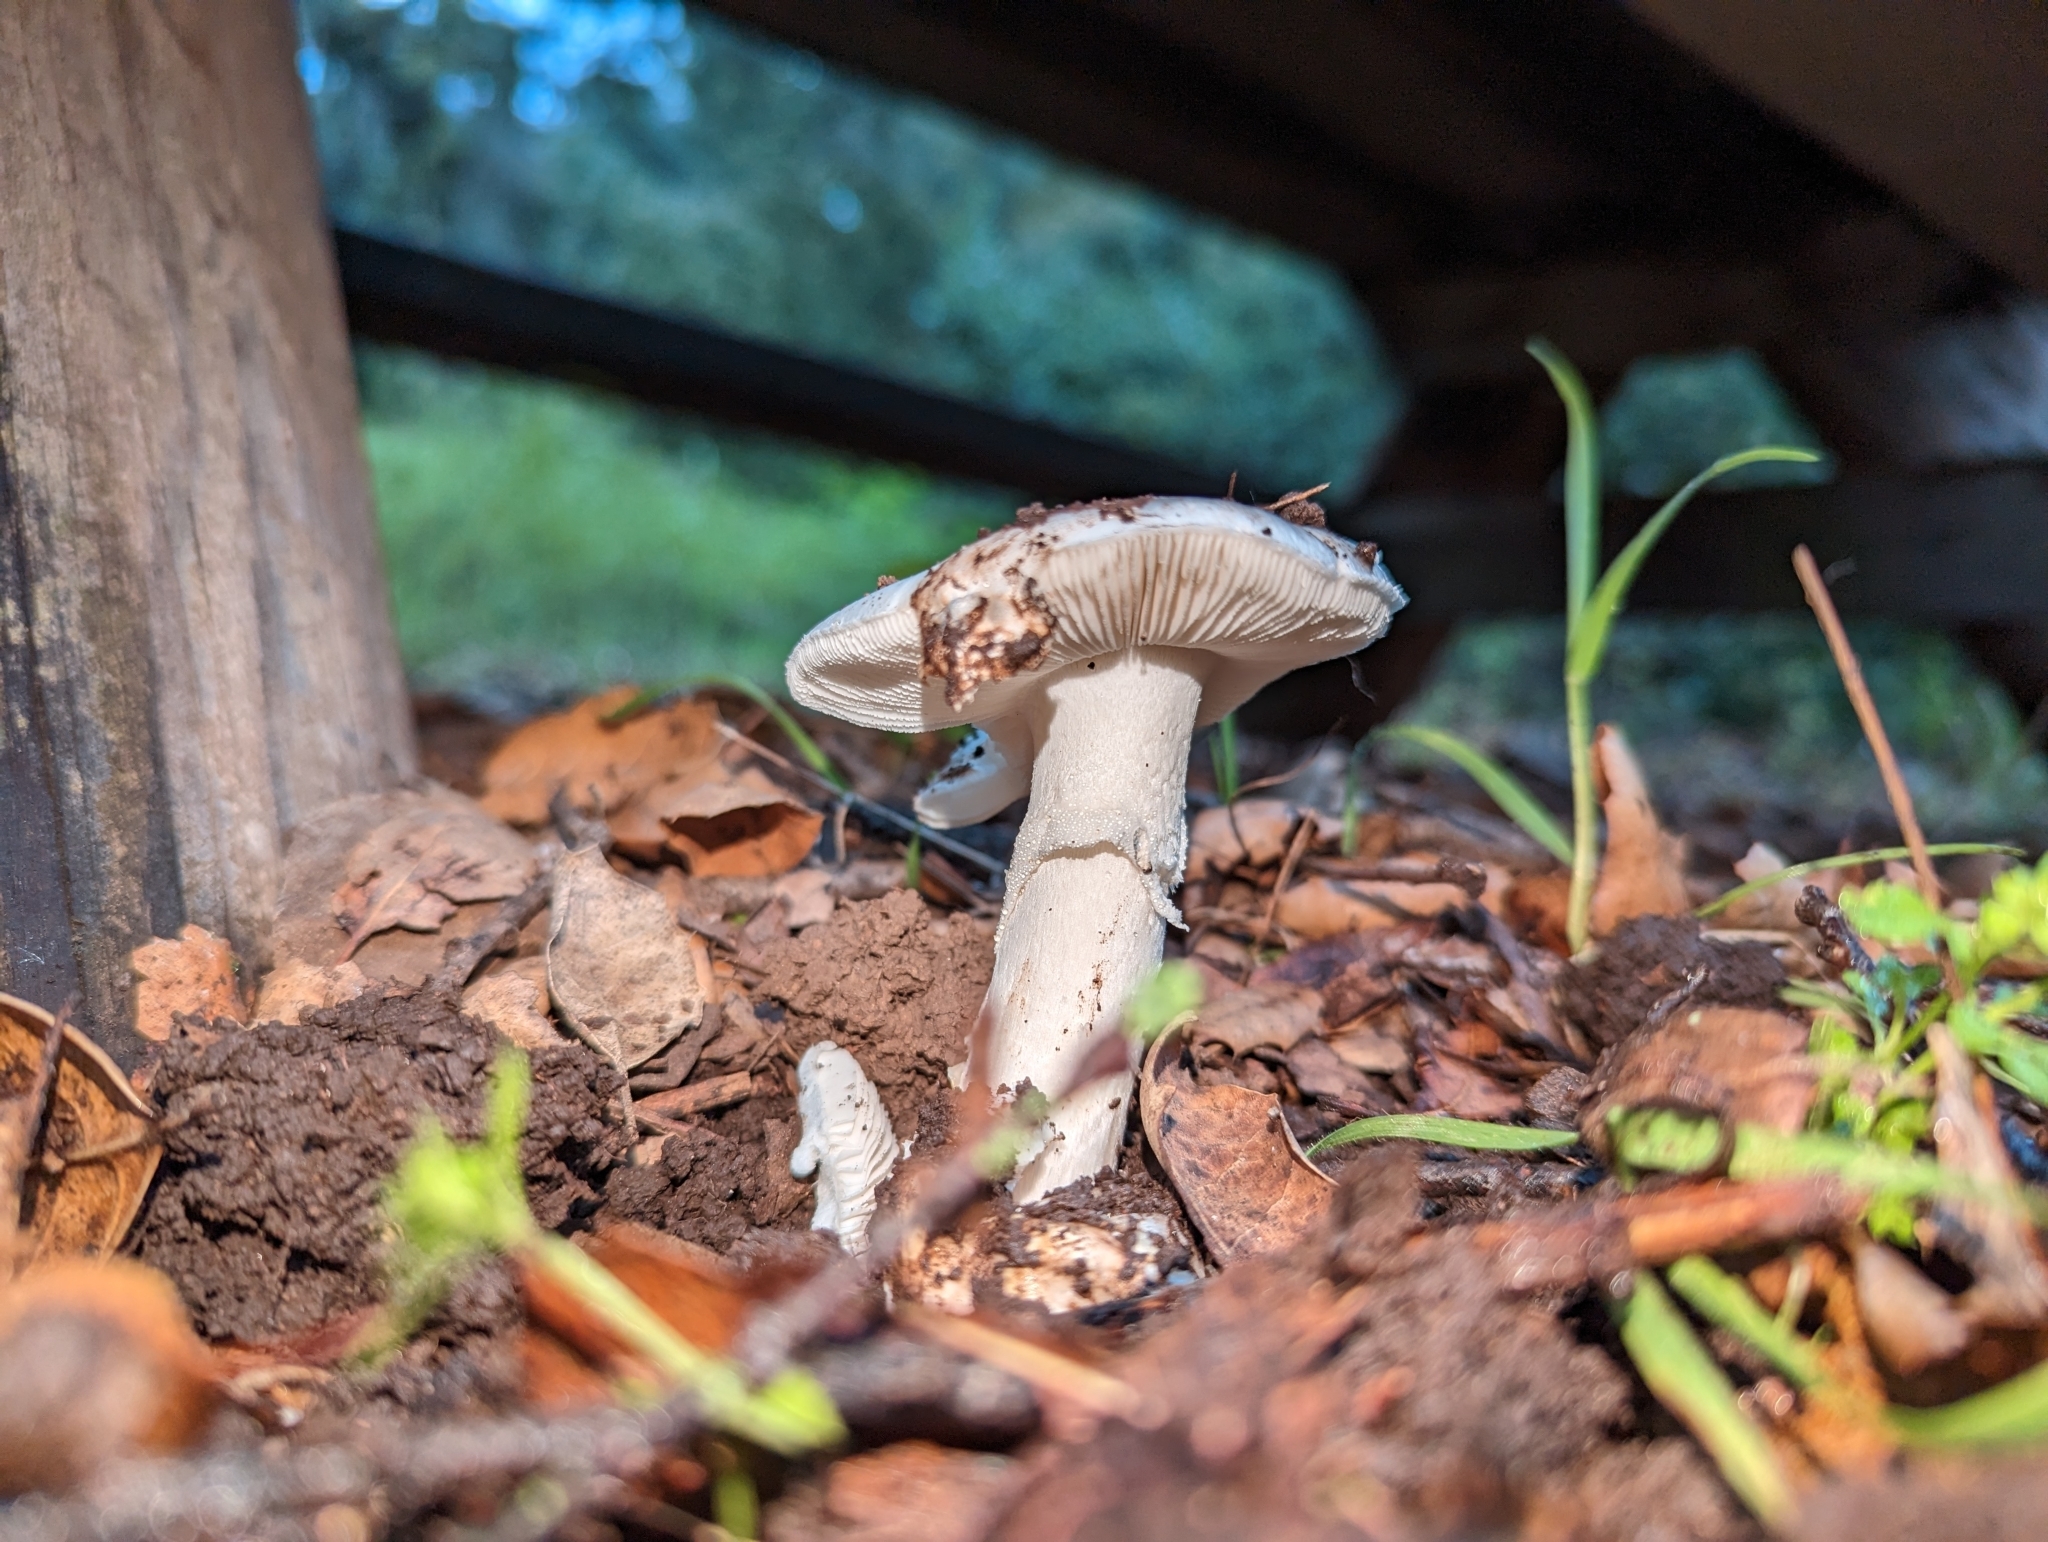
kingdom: Fungi
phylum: Basidiomycota
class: Agaricomycetes
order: Agaricales
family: Amanitaceae
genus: Amanita
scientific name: Amanita ocreata
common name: Western destroying angel
